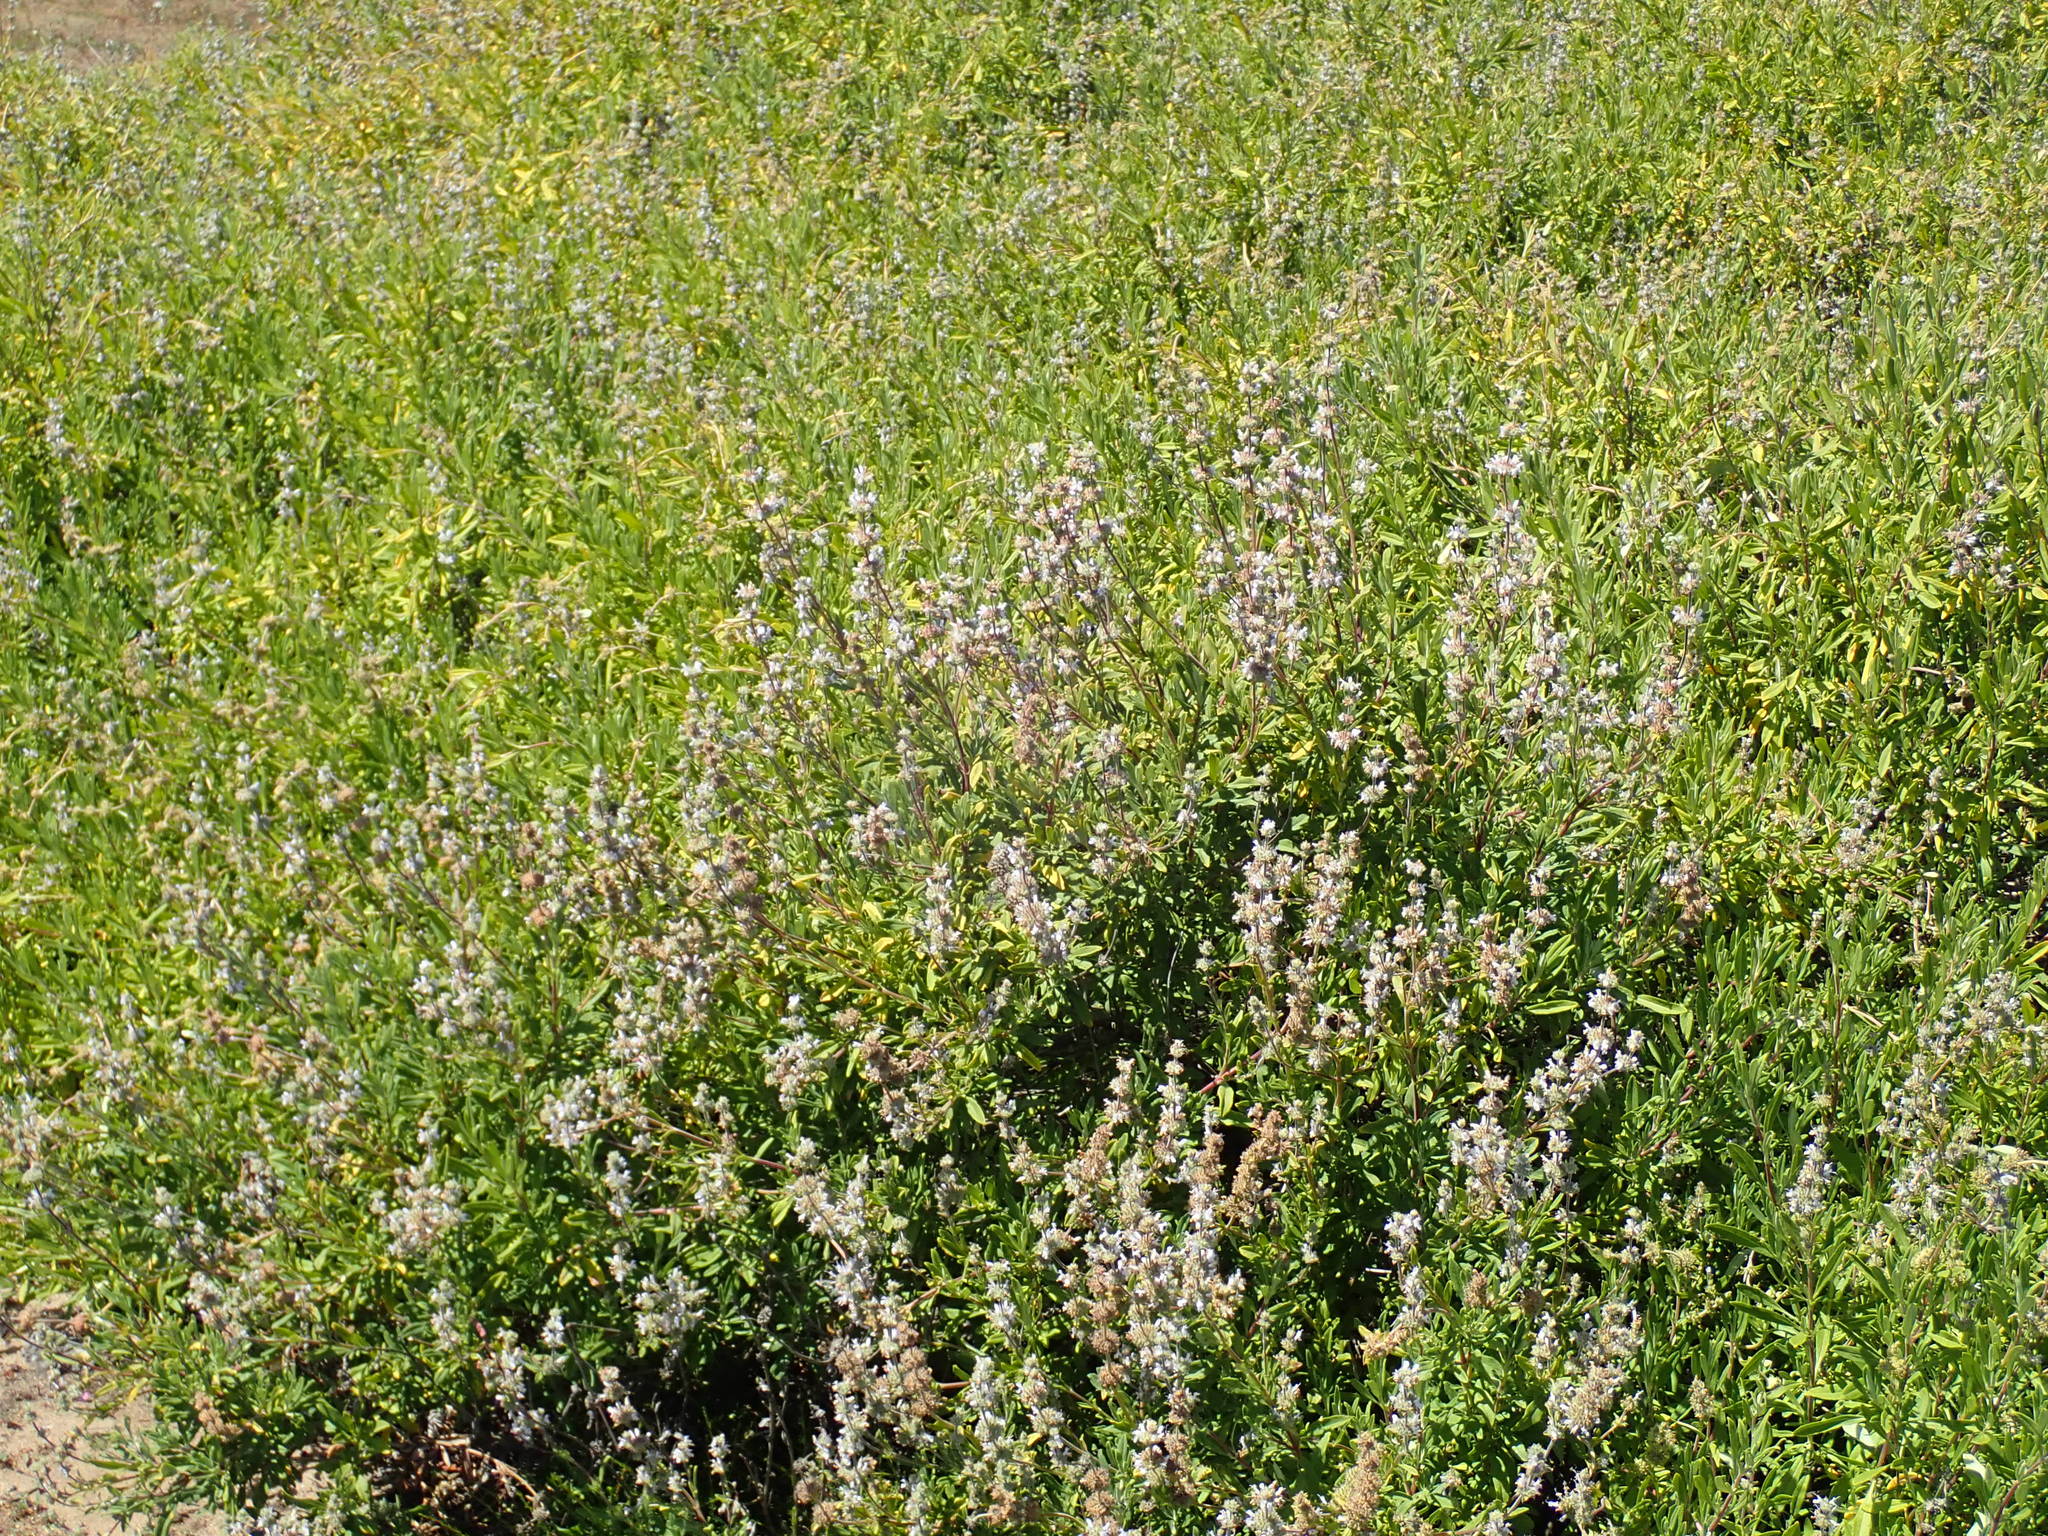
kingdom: Plantae
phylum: Tracheophyta
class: Magnoliopsida
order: Lamiales
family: Lamiaceae
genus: Salvia
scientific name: Salvia mellifera
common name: Black sage
